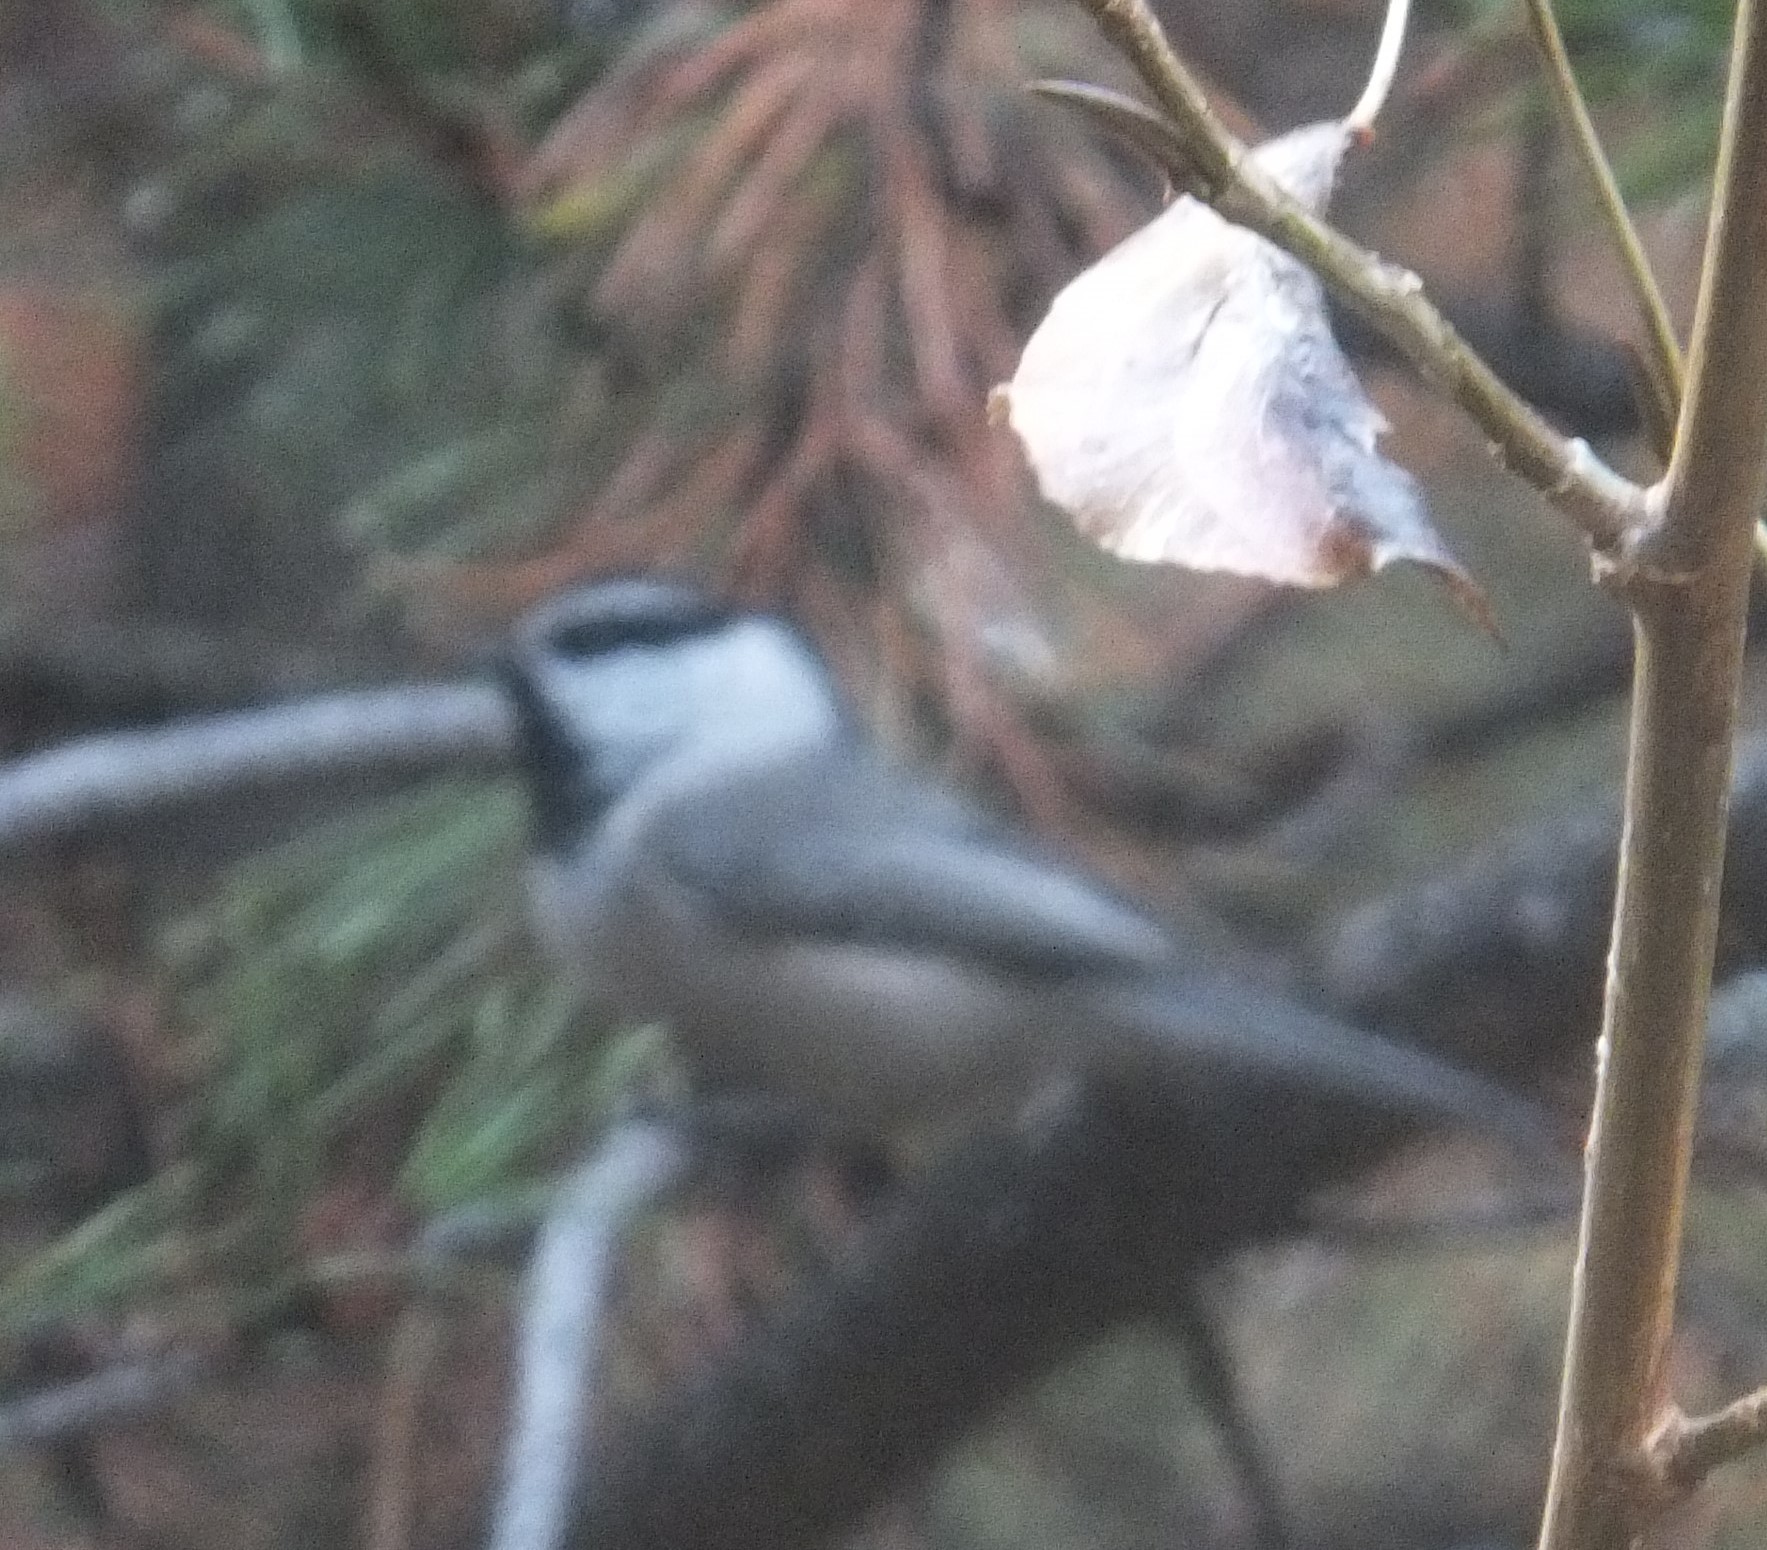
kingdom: Animalia
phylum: Chordata
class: Aves
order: Passeriformes
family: Paridae
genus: Poecile
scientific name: Poecile gambeli
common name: Mountain chickadee
